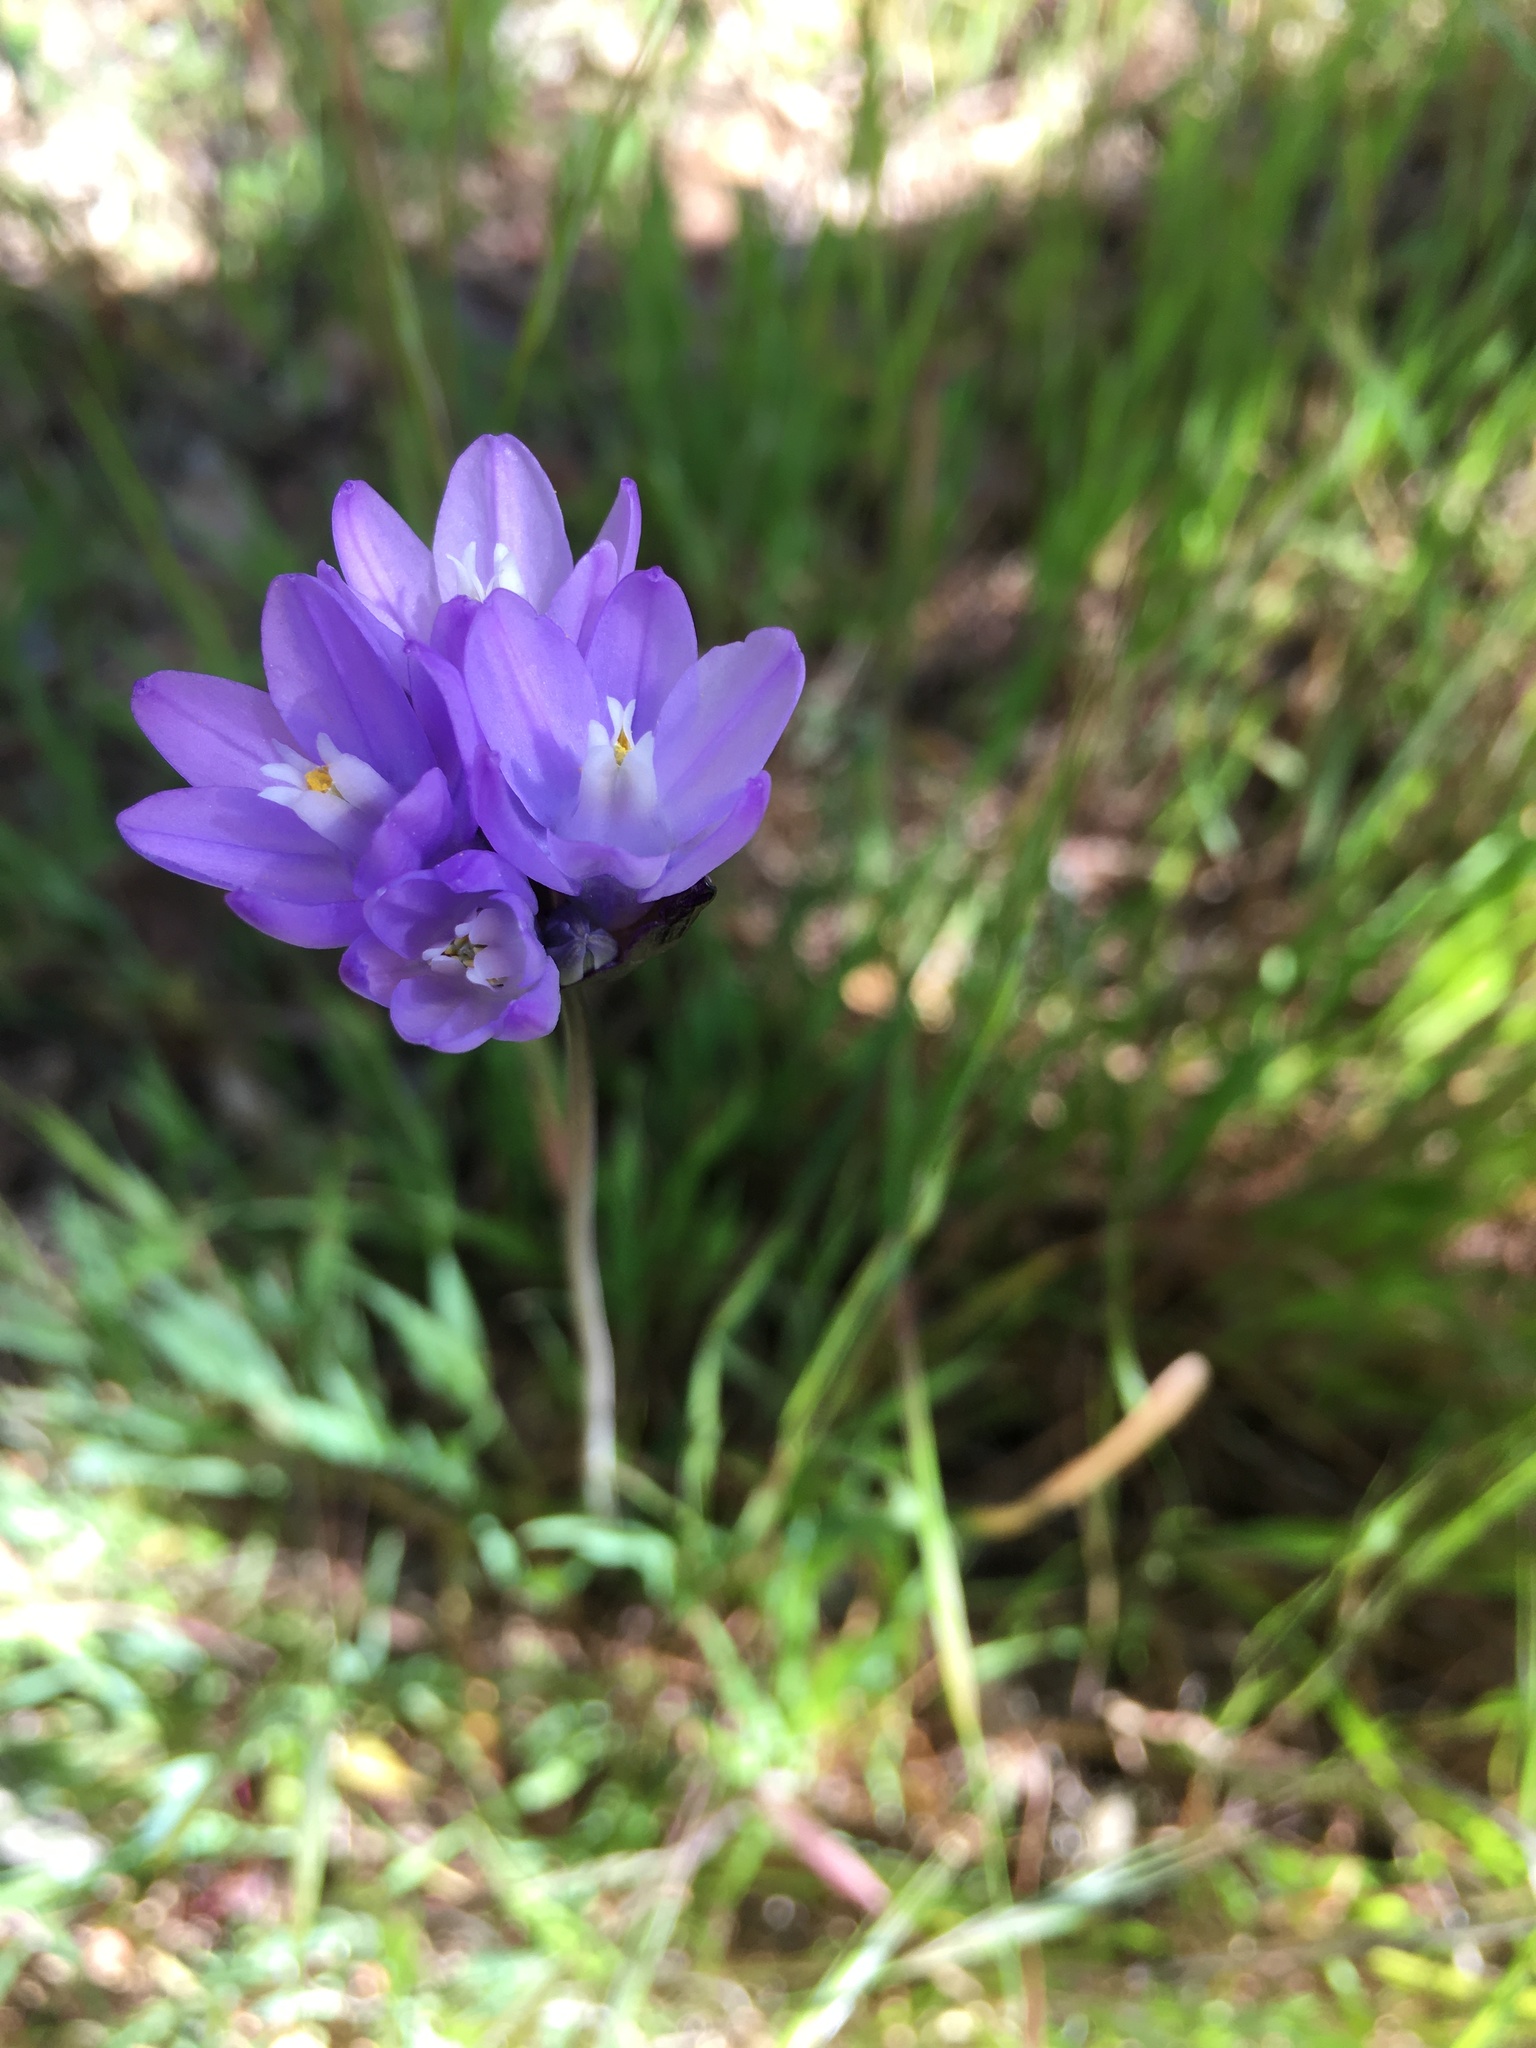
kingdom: Plantae
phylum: Tracheophyta
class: Liliopsida
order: Asparagales
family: Asparagaceae
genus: Dipterostemon
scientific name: Dipterostemon capitatus
